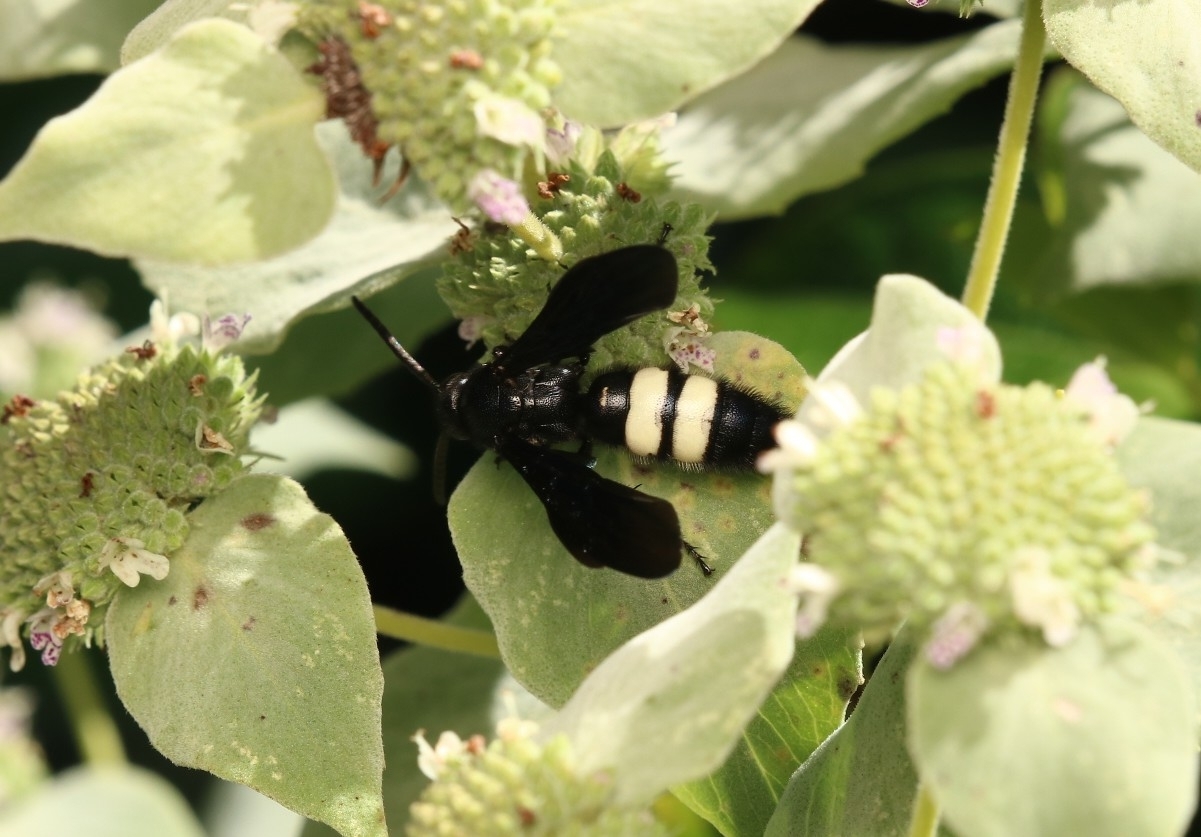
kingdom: Animalia
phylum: Arthropoda
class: Insecta
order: Hymenoptera
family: Scoliidae
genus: Scolia
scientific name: Scolia bicincta
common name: Double-banded scoliid wasp
